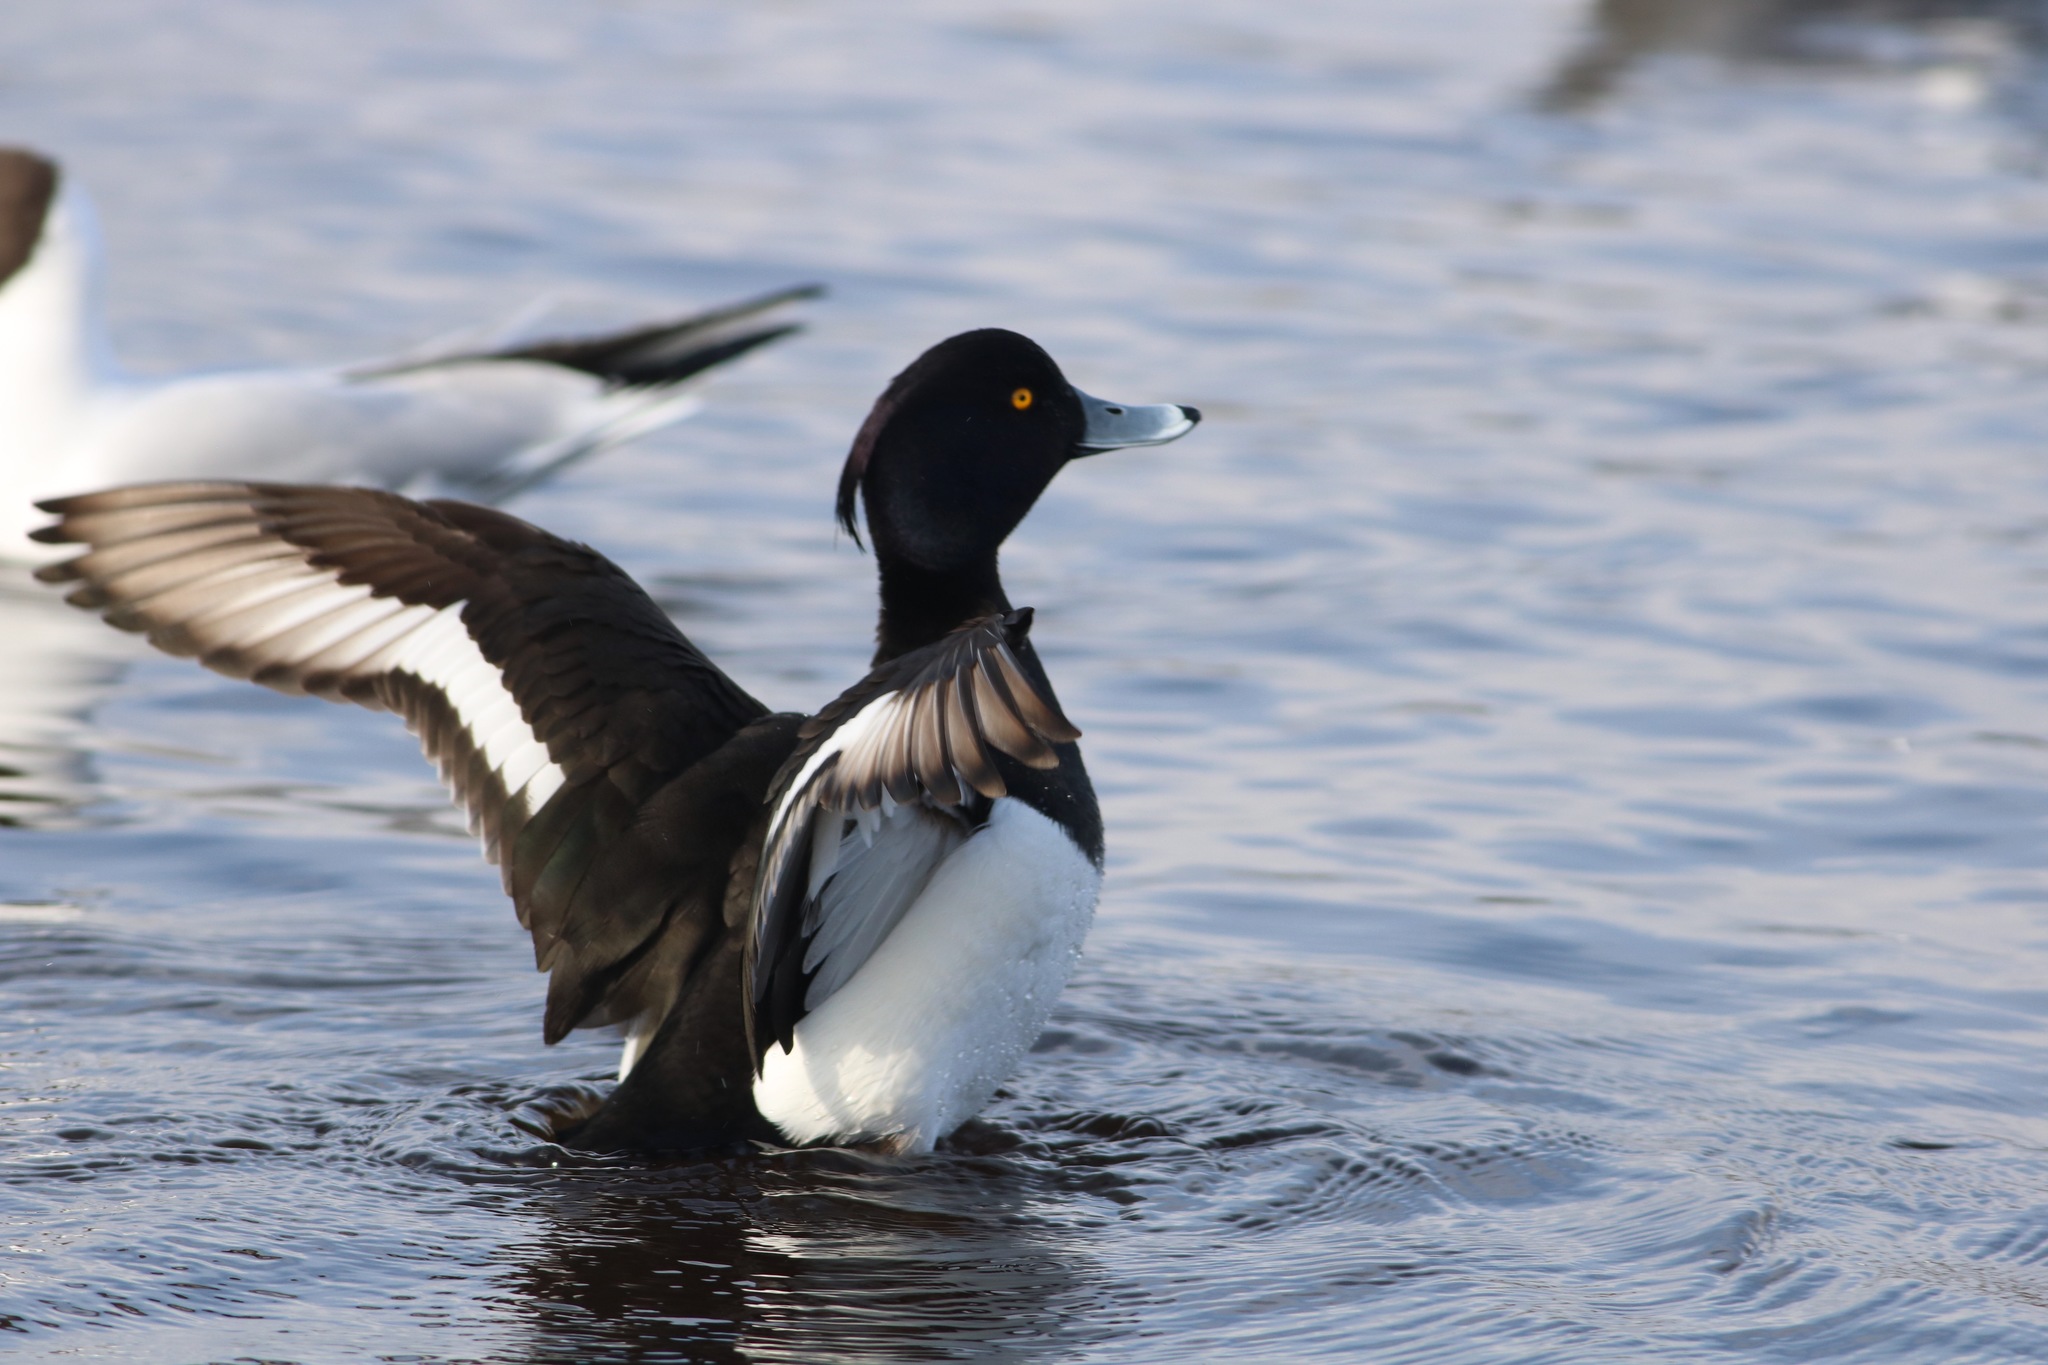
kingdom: Animalia
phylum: Chordata
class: Aves
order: Anseriformes
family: Anatidae
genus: Aythya
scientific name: Aythya fuligula
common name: Tufted duck
